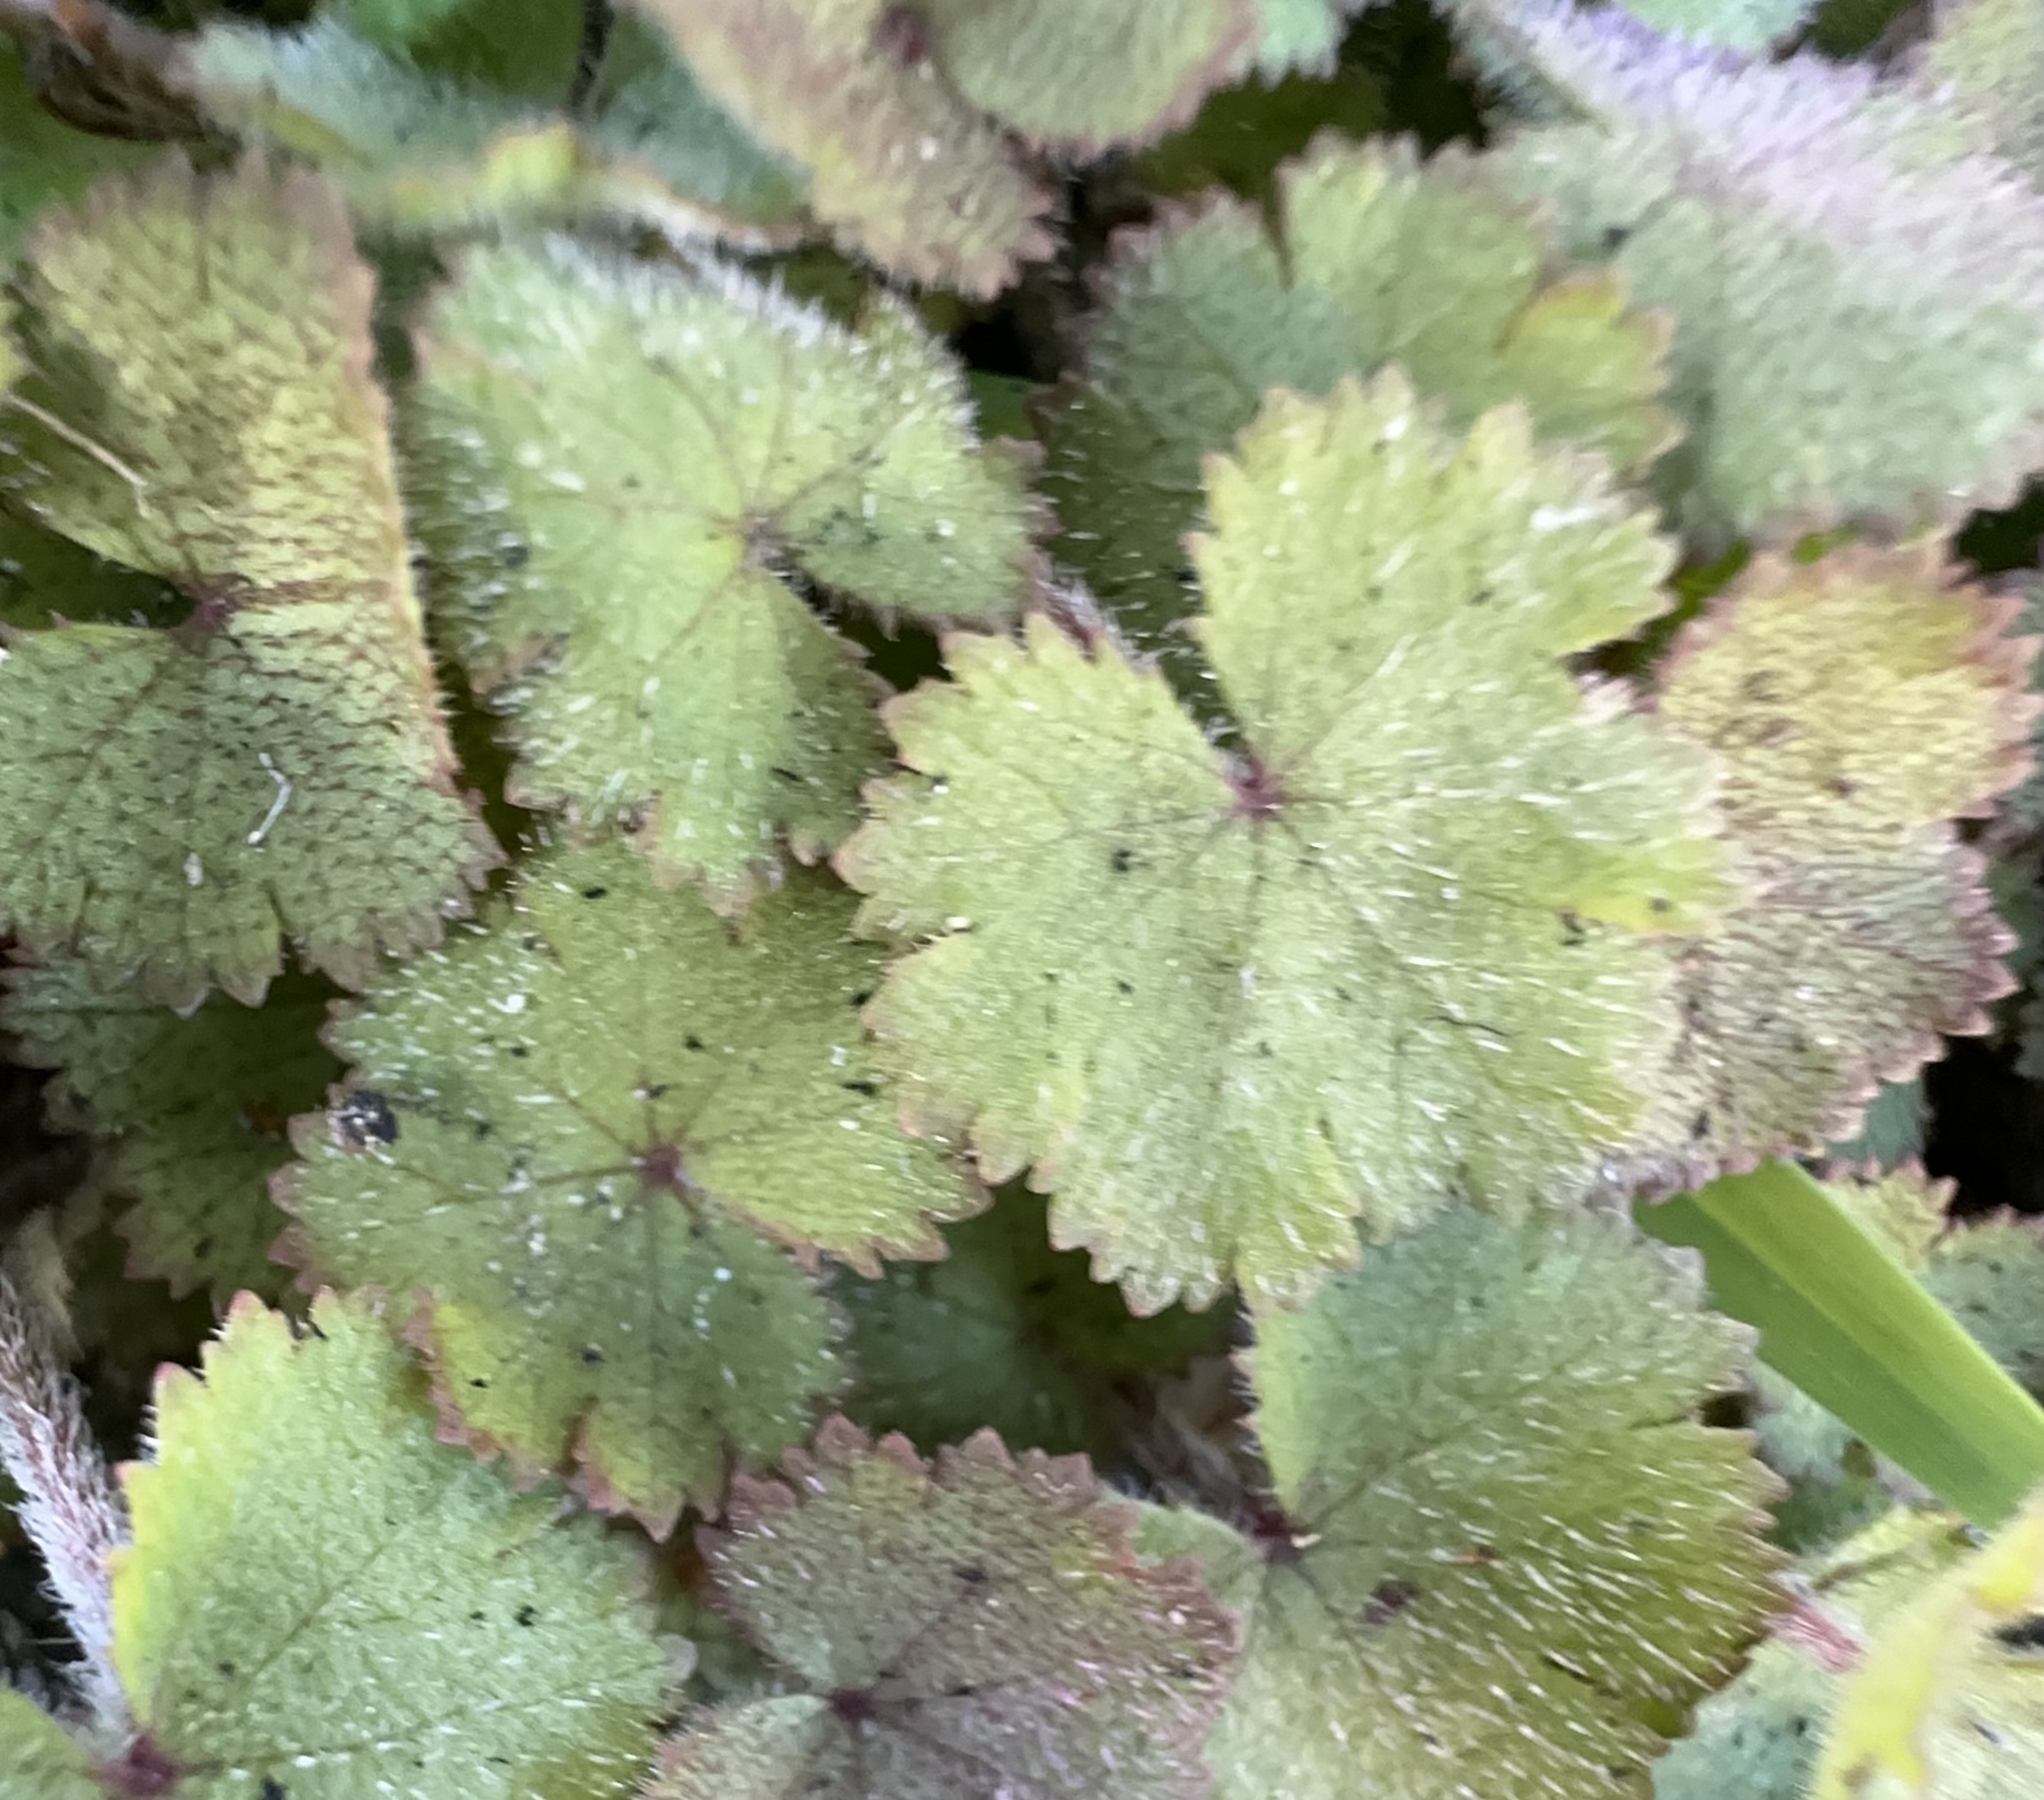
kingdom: Plantae
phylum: Tracheophyta
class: Magnoliopsida
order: Apiales
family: Araliaceae
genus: Hydrocotyle
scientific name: Hydrocotyle moschata
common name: Hairy pennywort
